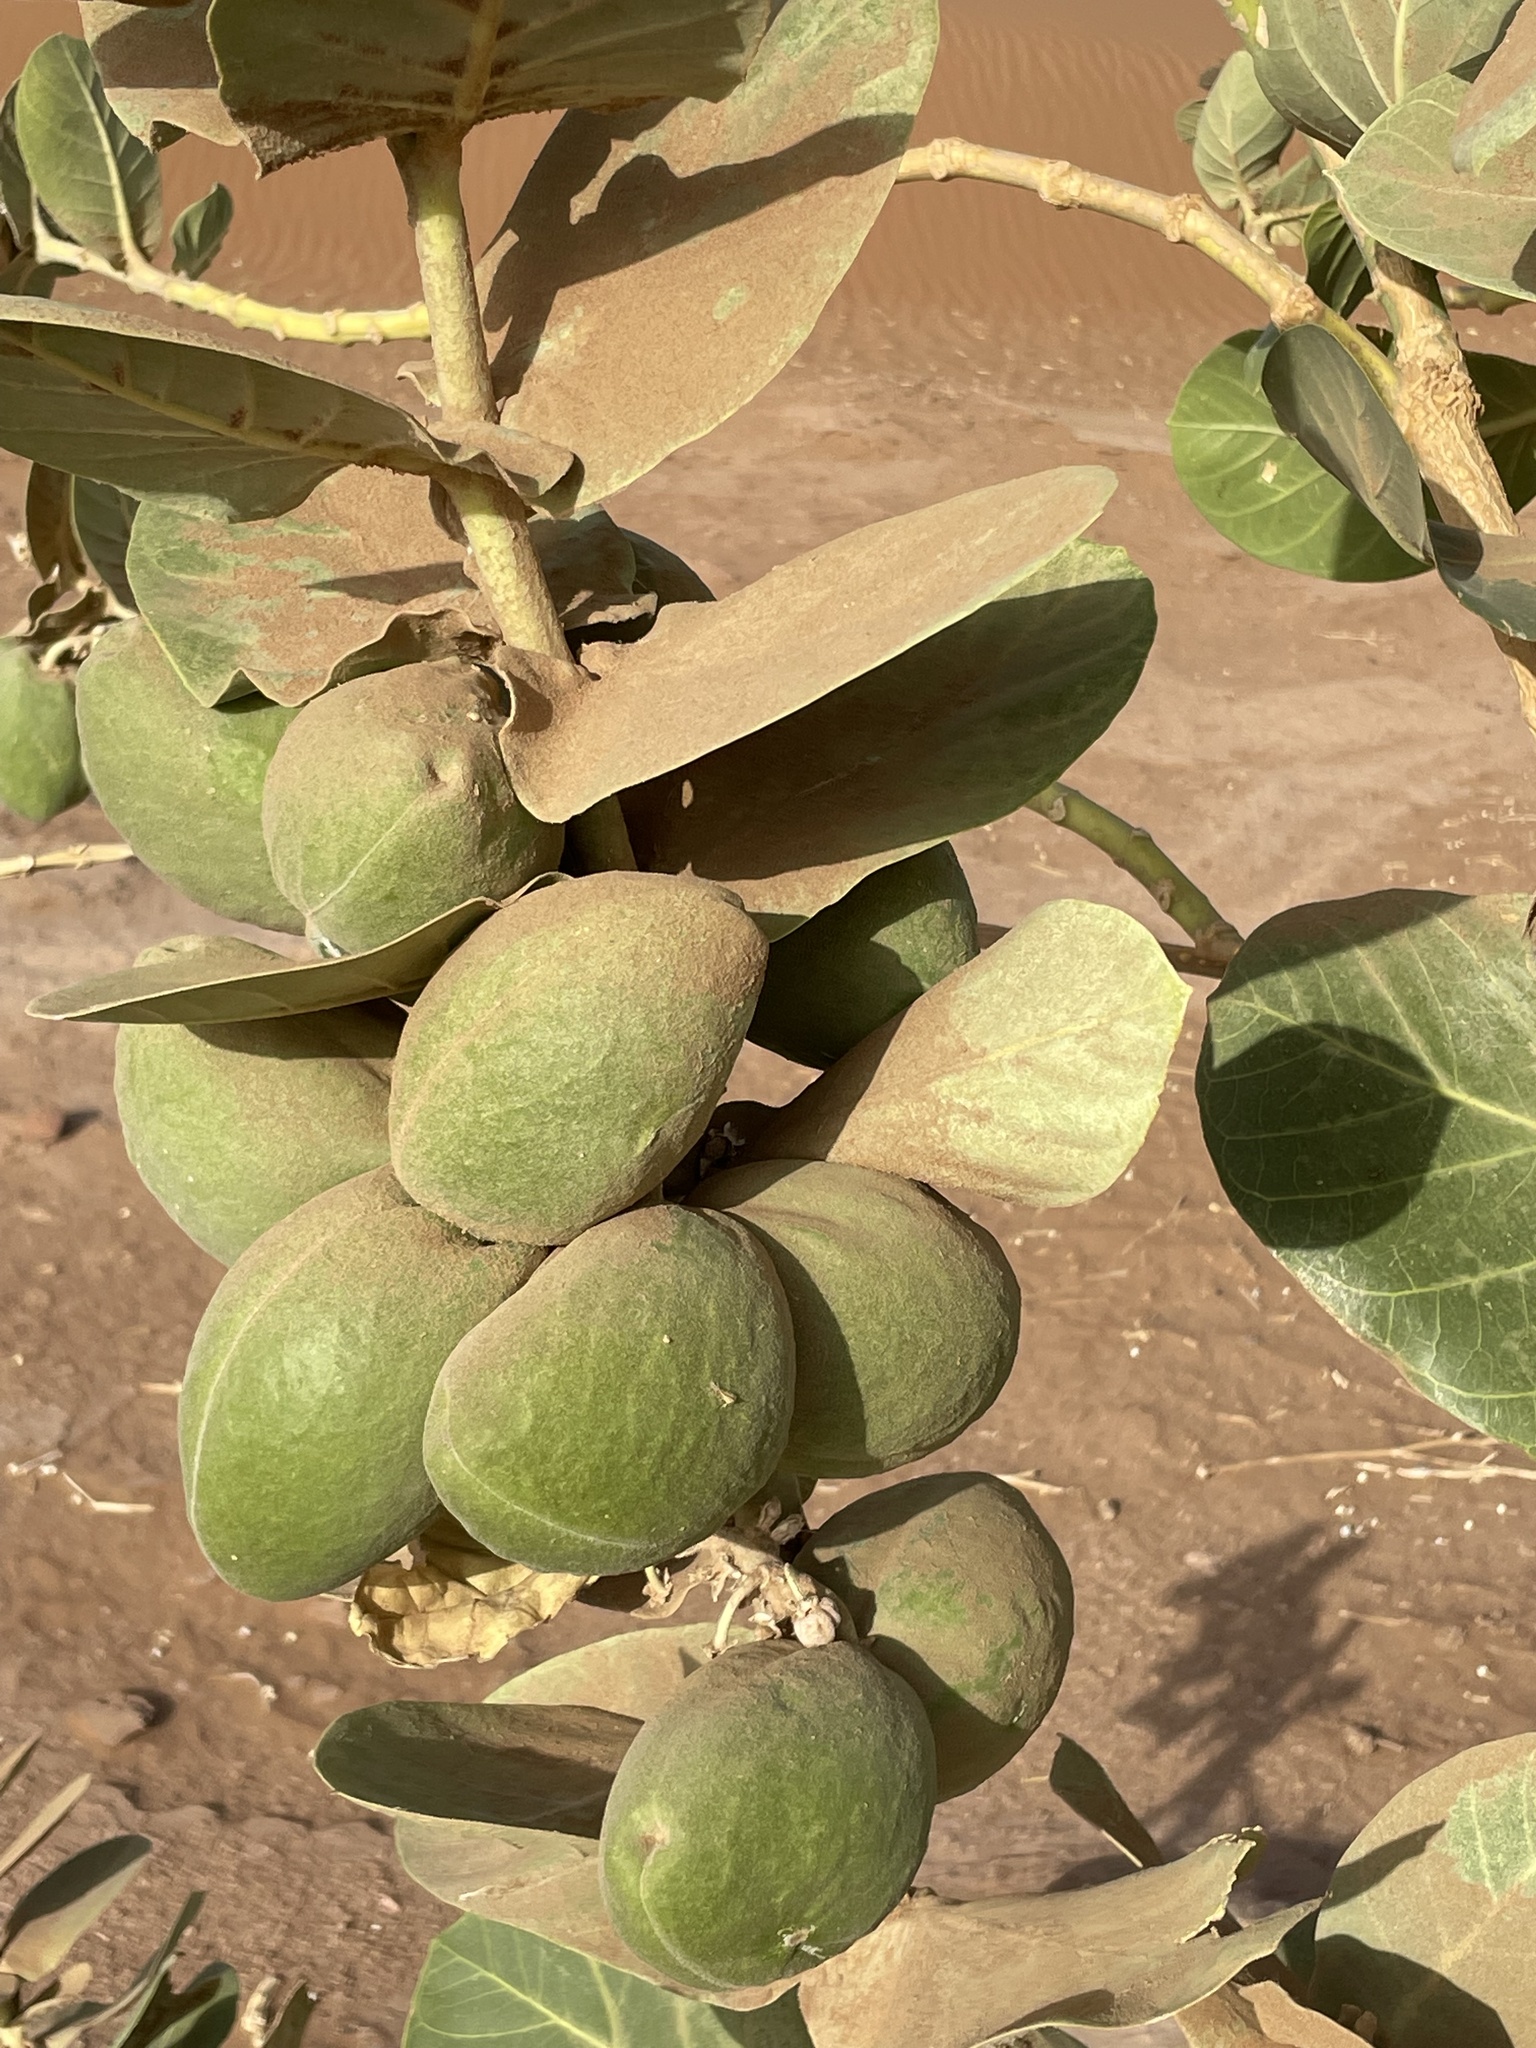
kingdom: Plantae
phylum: Tracheophyta
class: Magnoliopsida
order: Gentianales
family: Apocynaceae
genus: Calotropis
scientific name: Calotropis procera
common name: Roostertree
